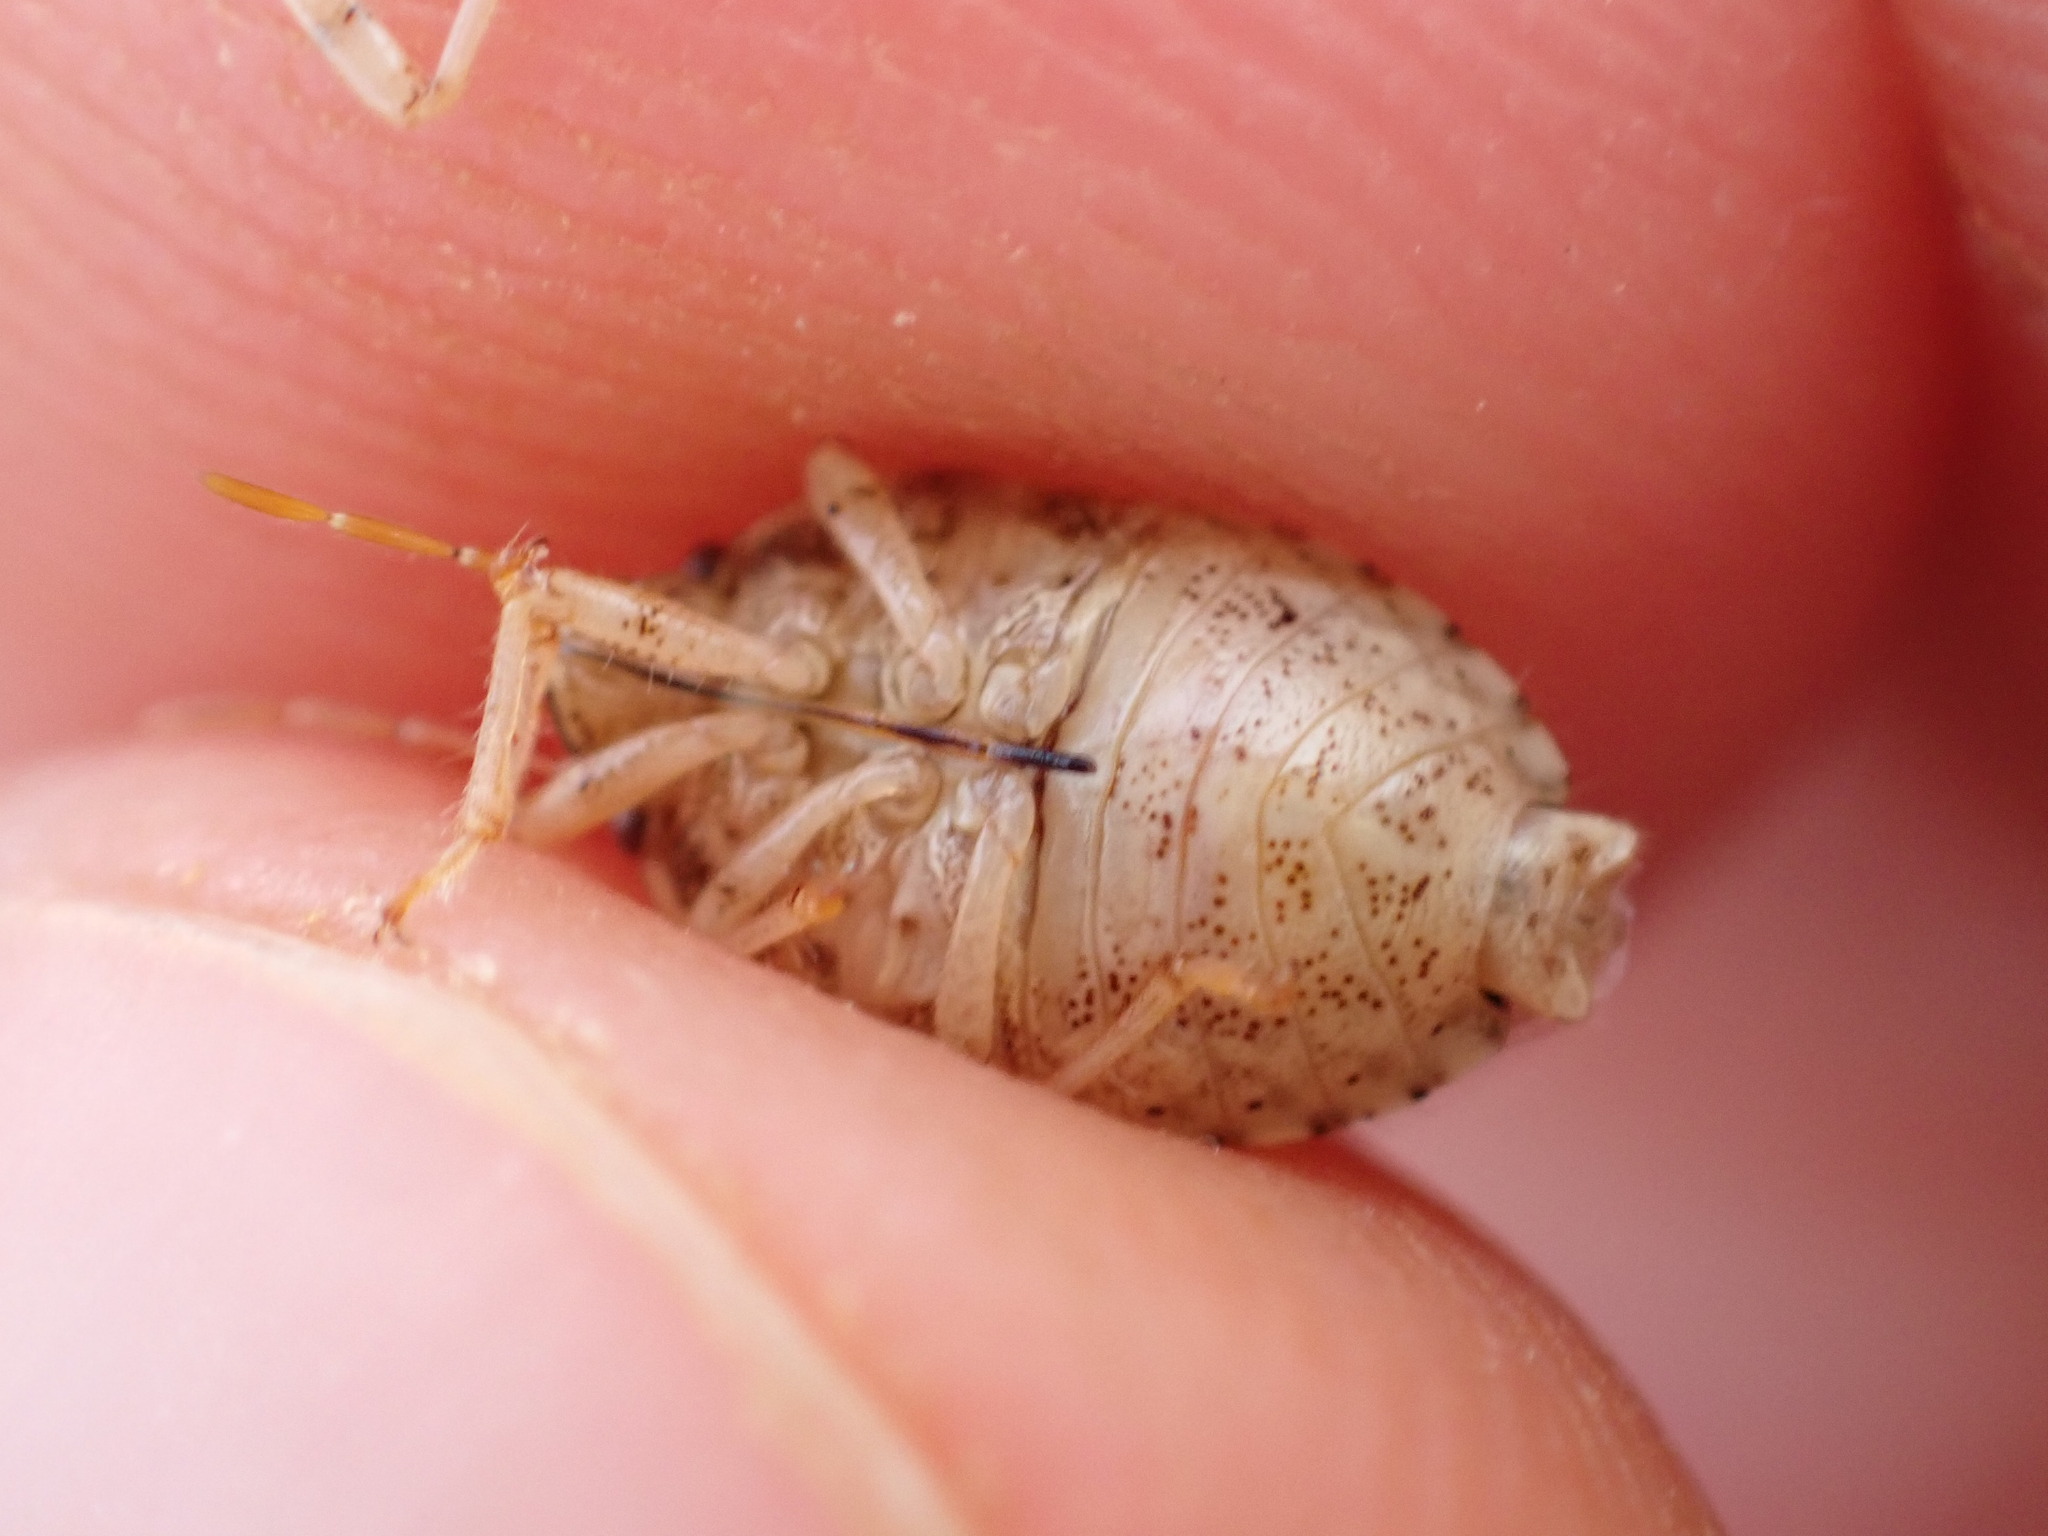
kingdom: Animalia
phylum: Arthropoda
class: Insecta
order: Hemiptera
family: Pentatomidae
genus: Staria
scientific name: Staria lunata
